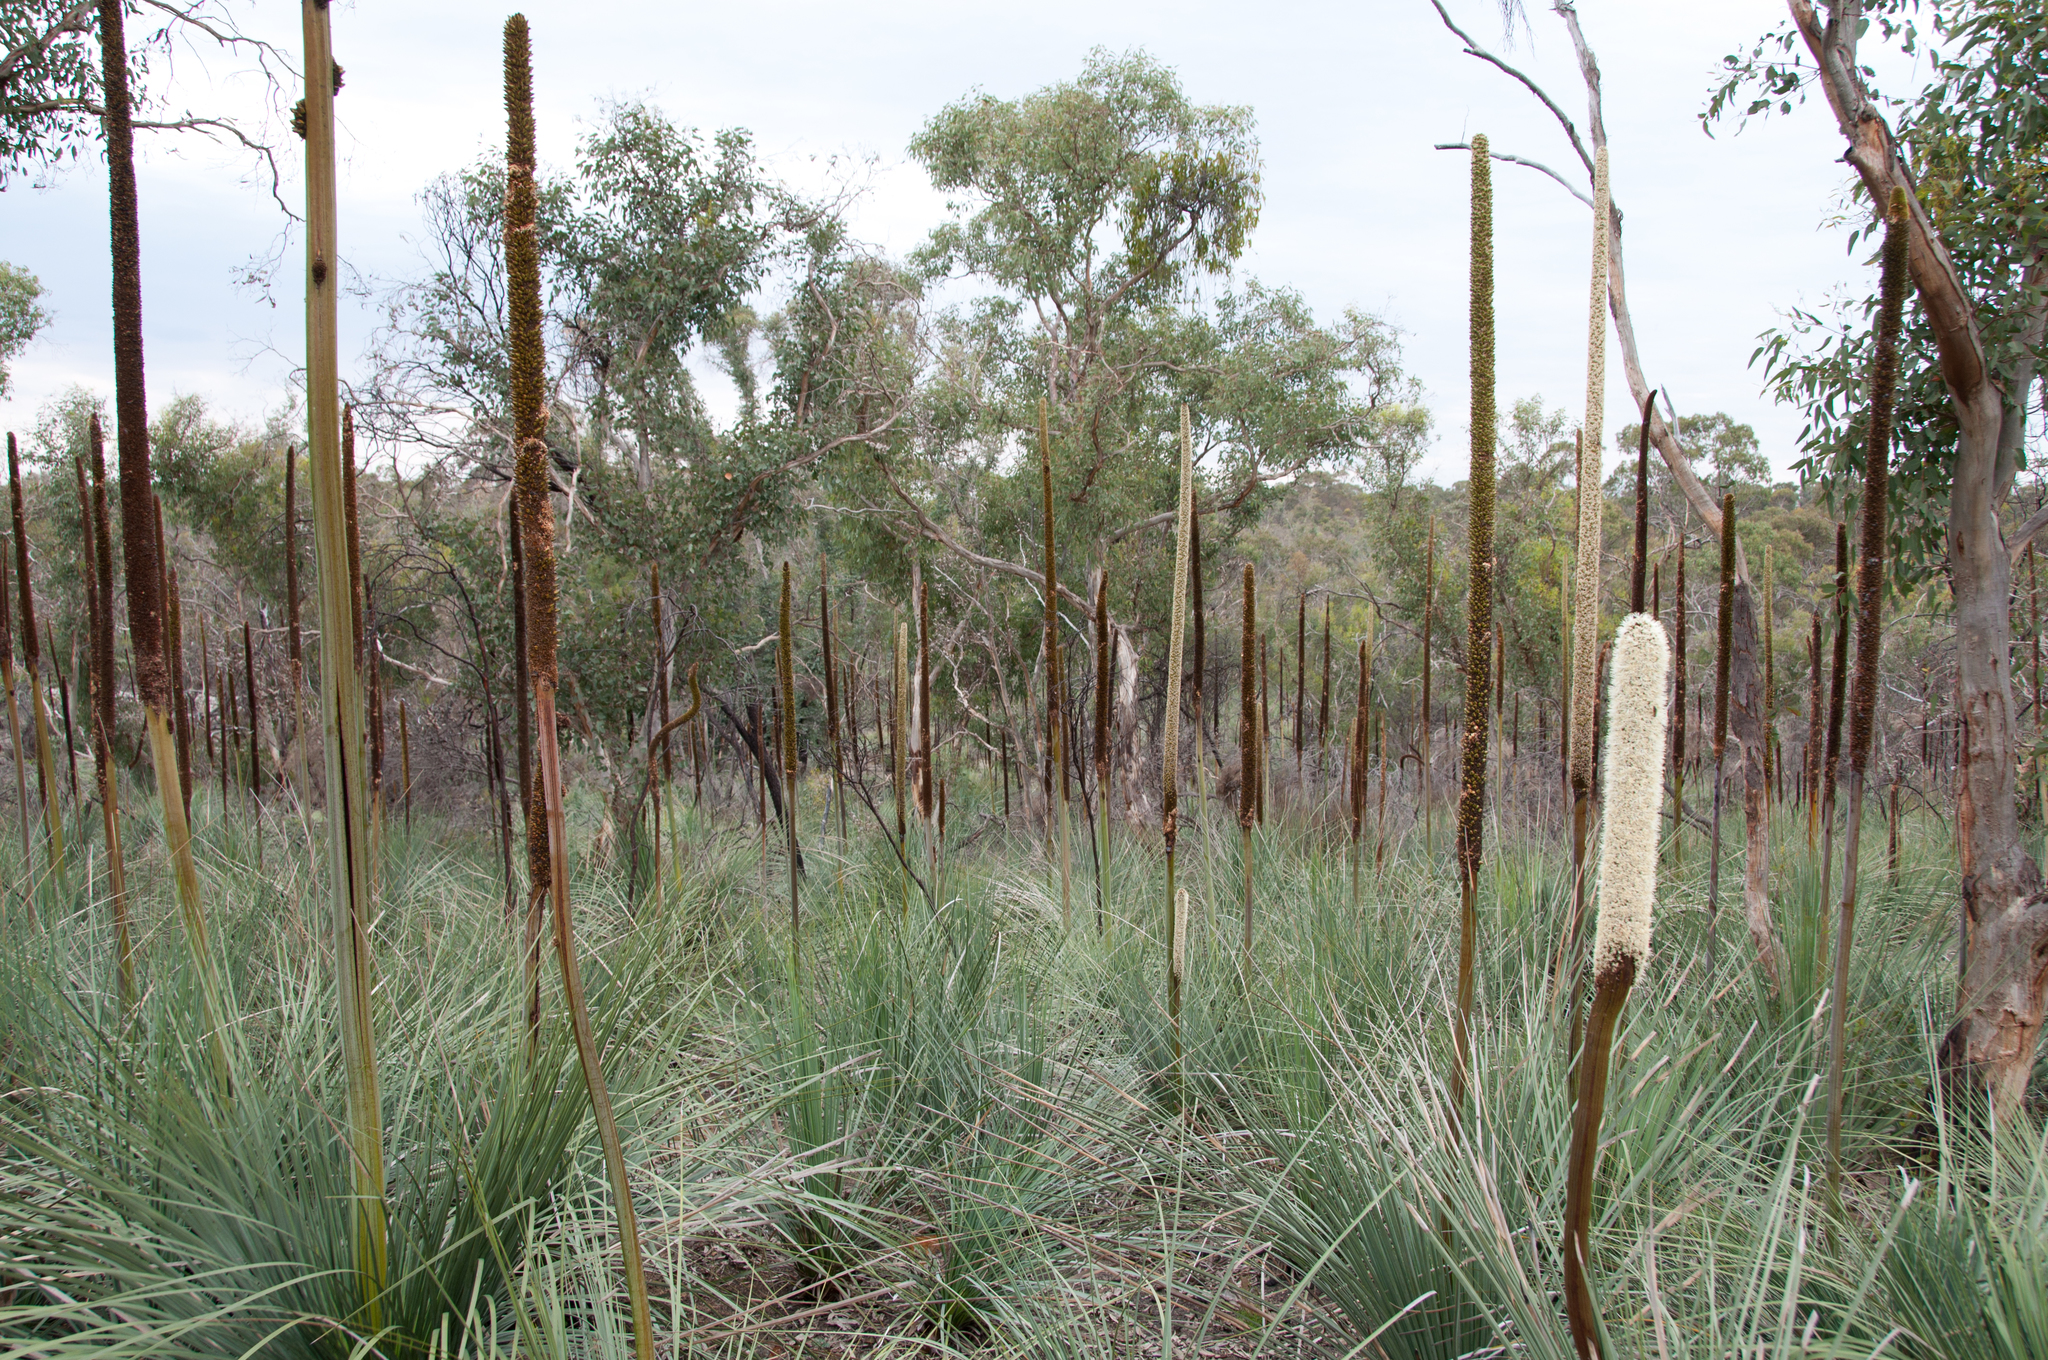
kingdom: Plantae
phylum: Tracheophyta
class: Liliopsida
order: Asparagales
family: Asphodelaceae
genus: Xanthorrhoea
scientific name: Xanthorrhoea semiplana
